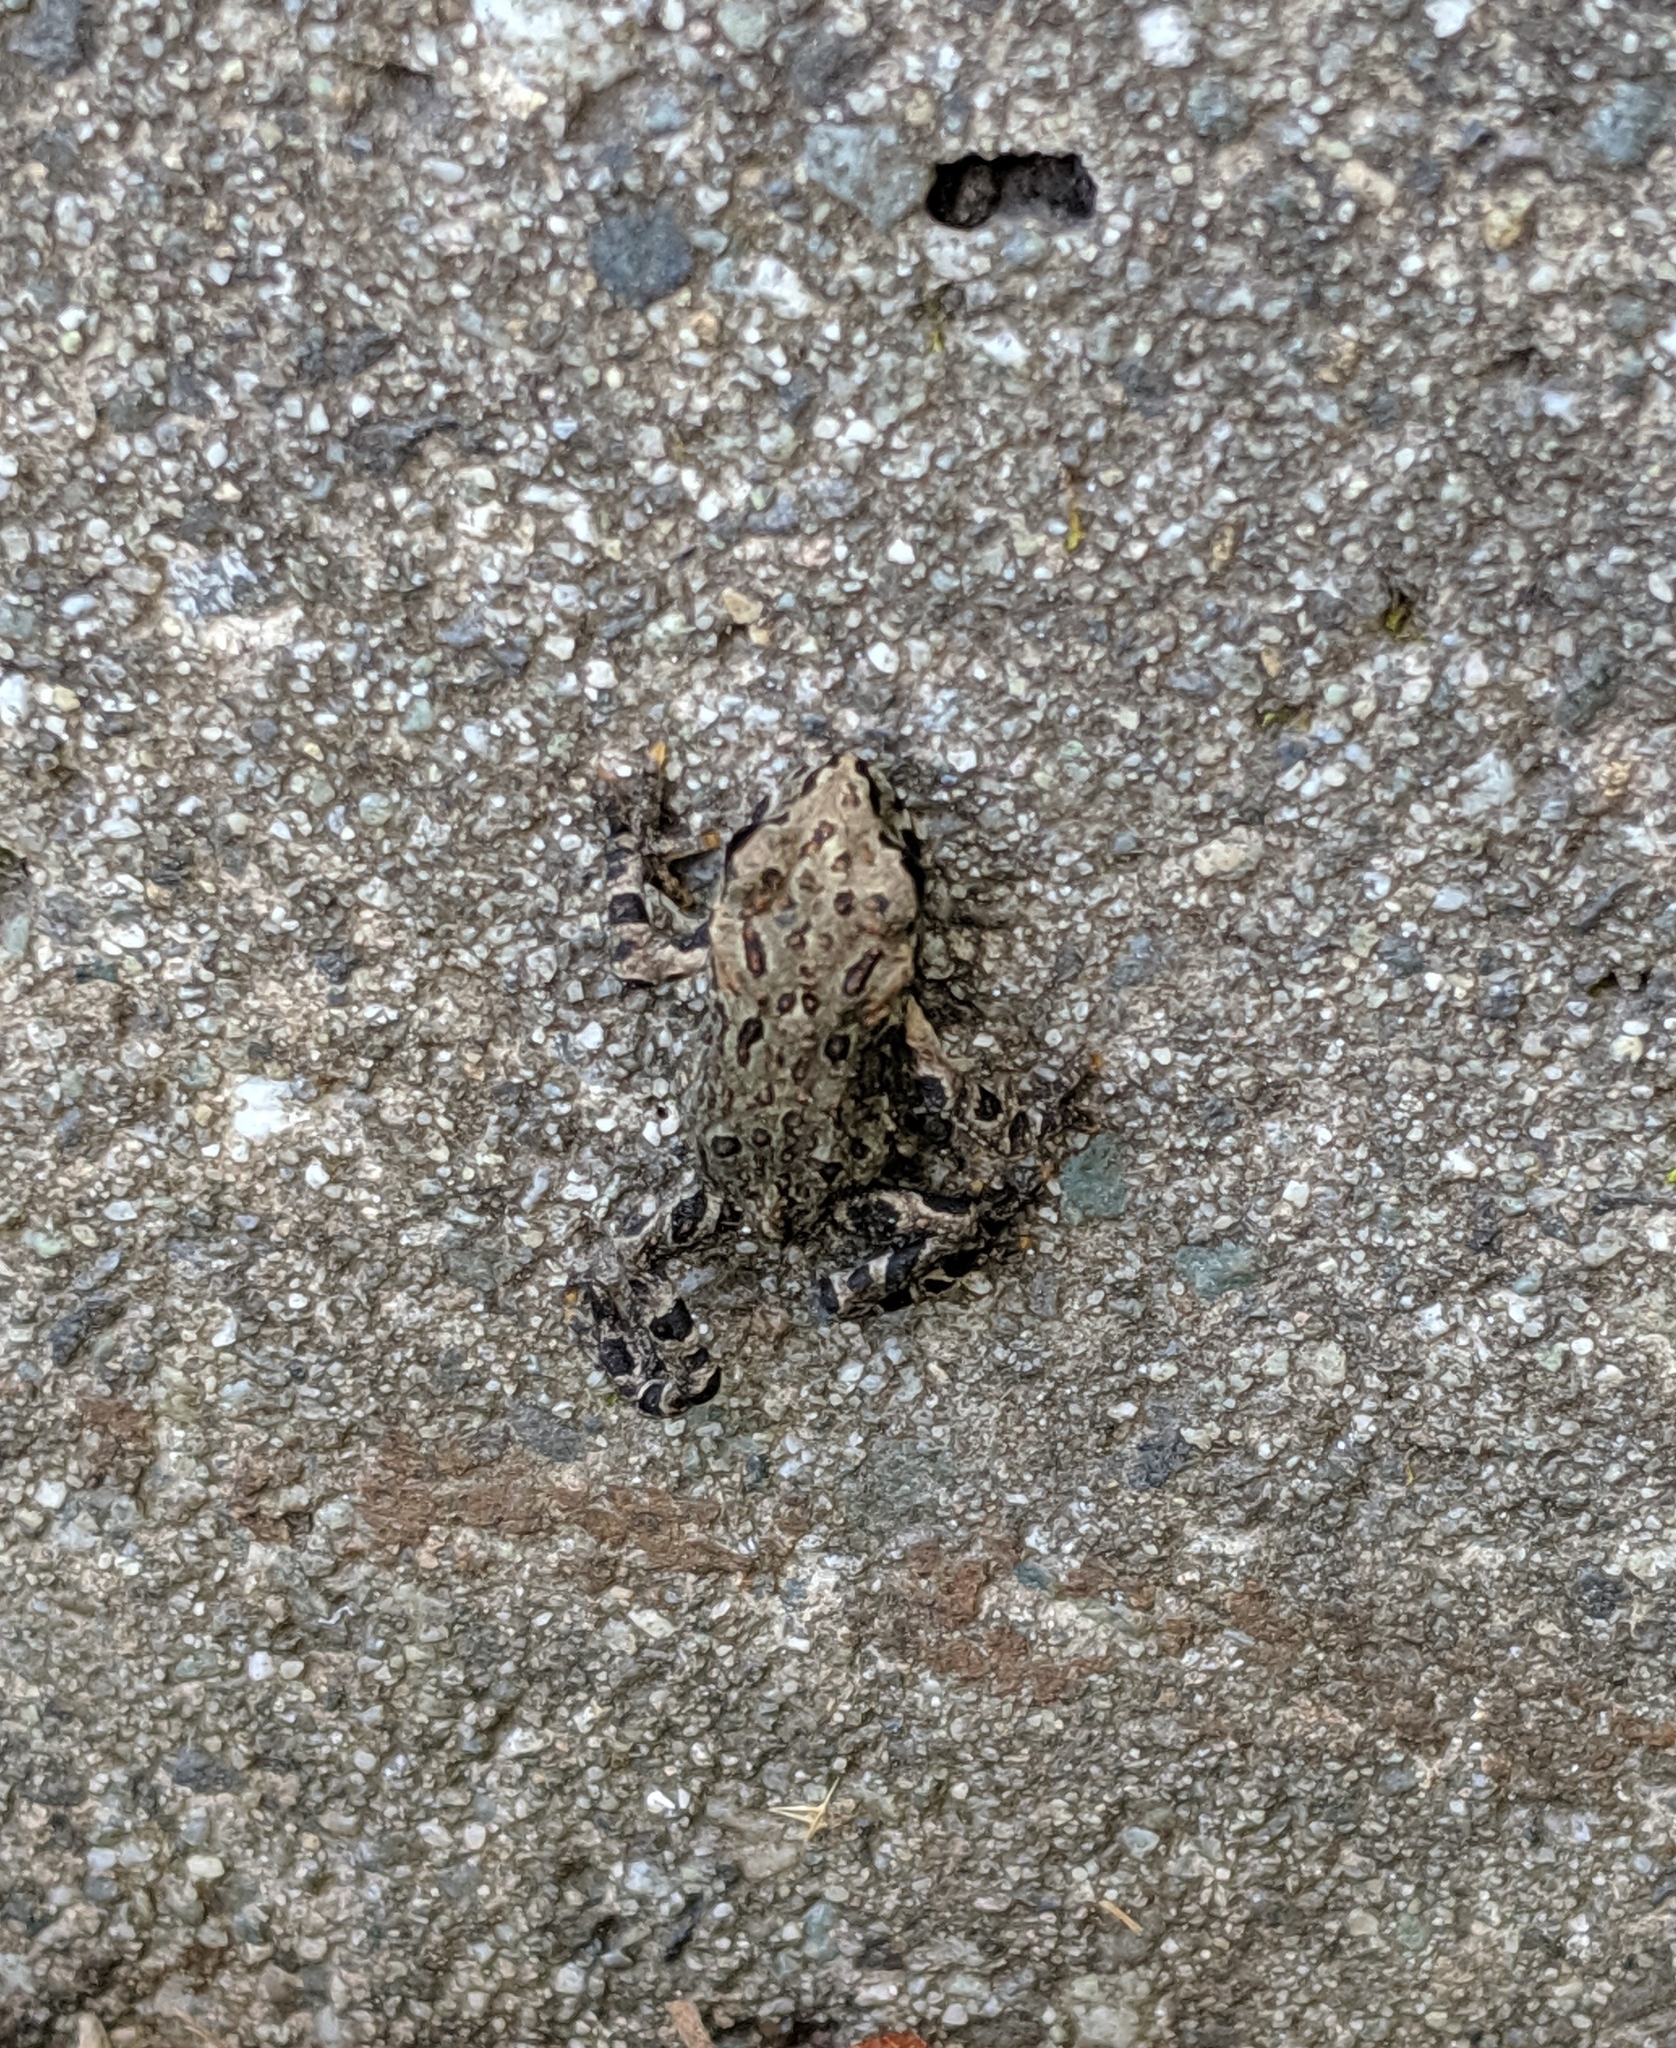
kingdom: Animalia
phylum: Chordata
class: Amphibia
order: Anura
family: Bufonidae
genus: Anaxyrus
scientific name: Anaxyrus boreas
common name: Western toad
